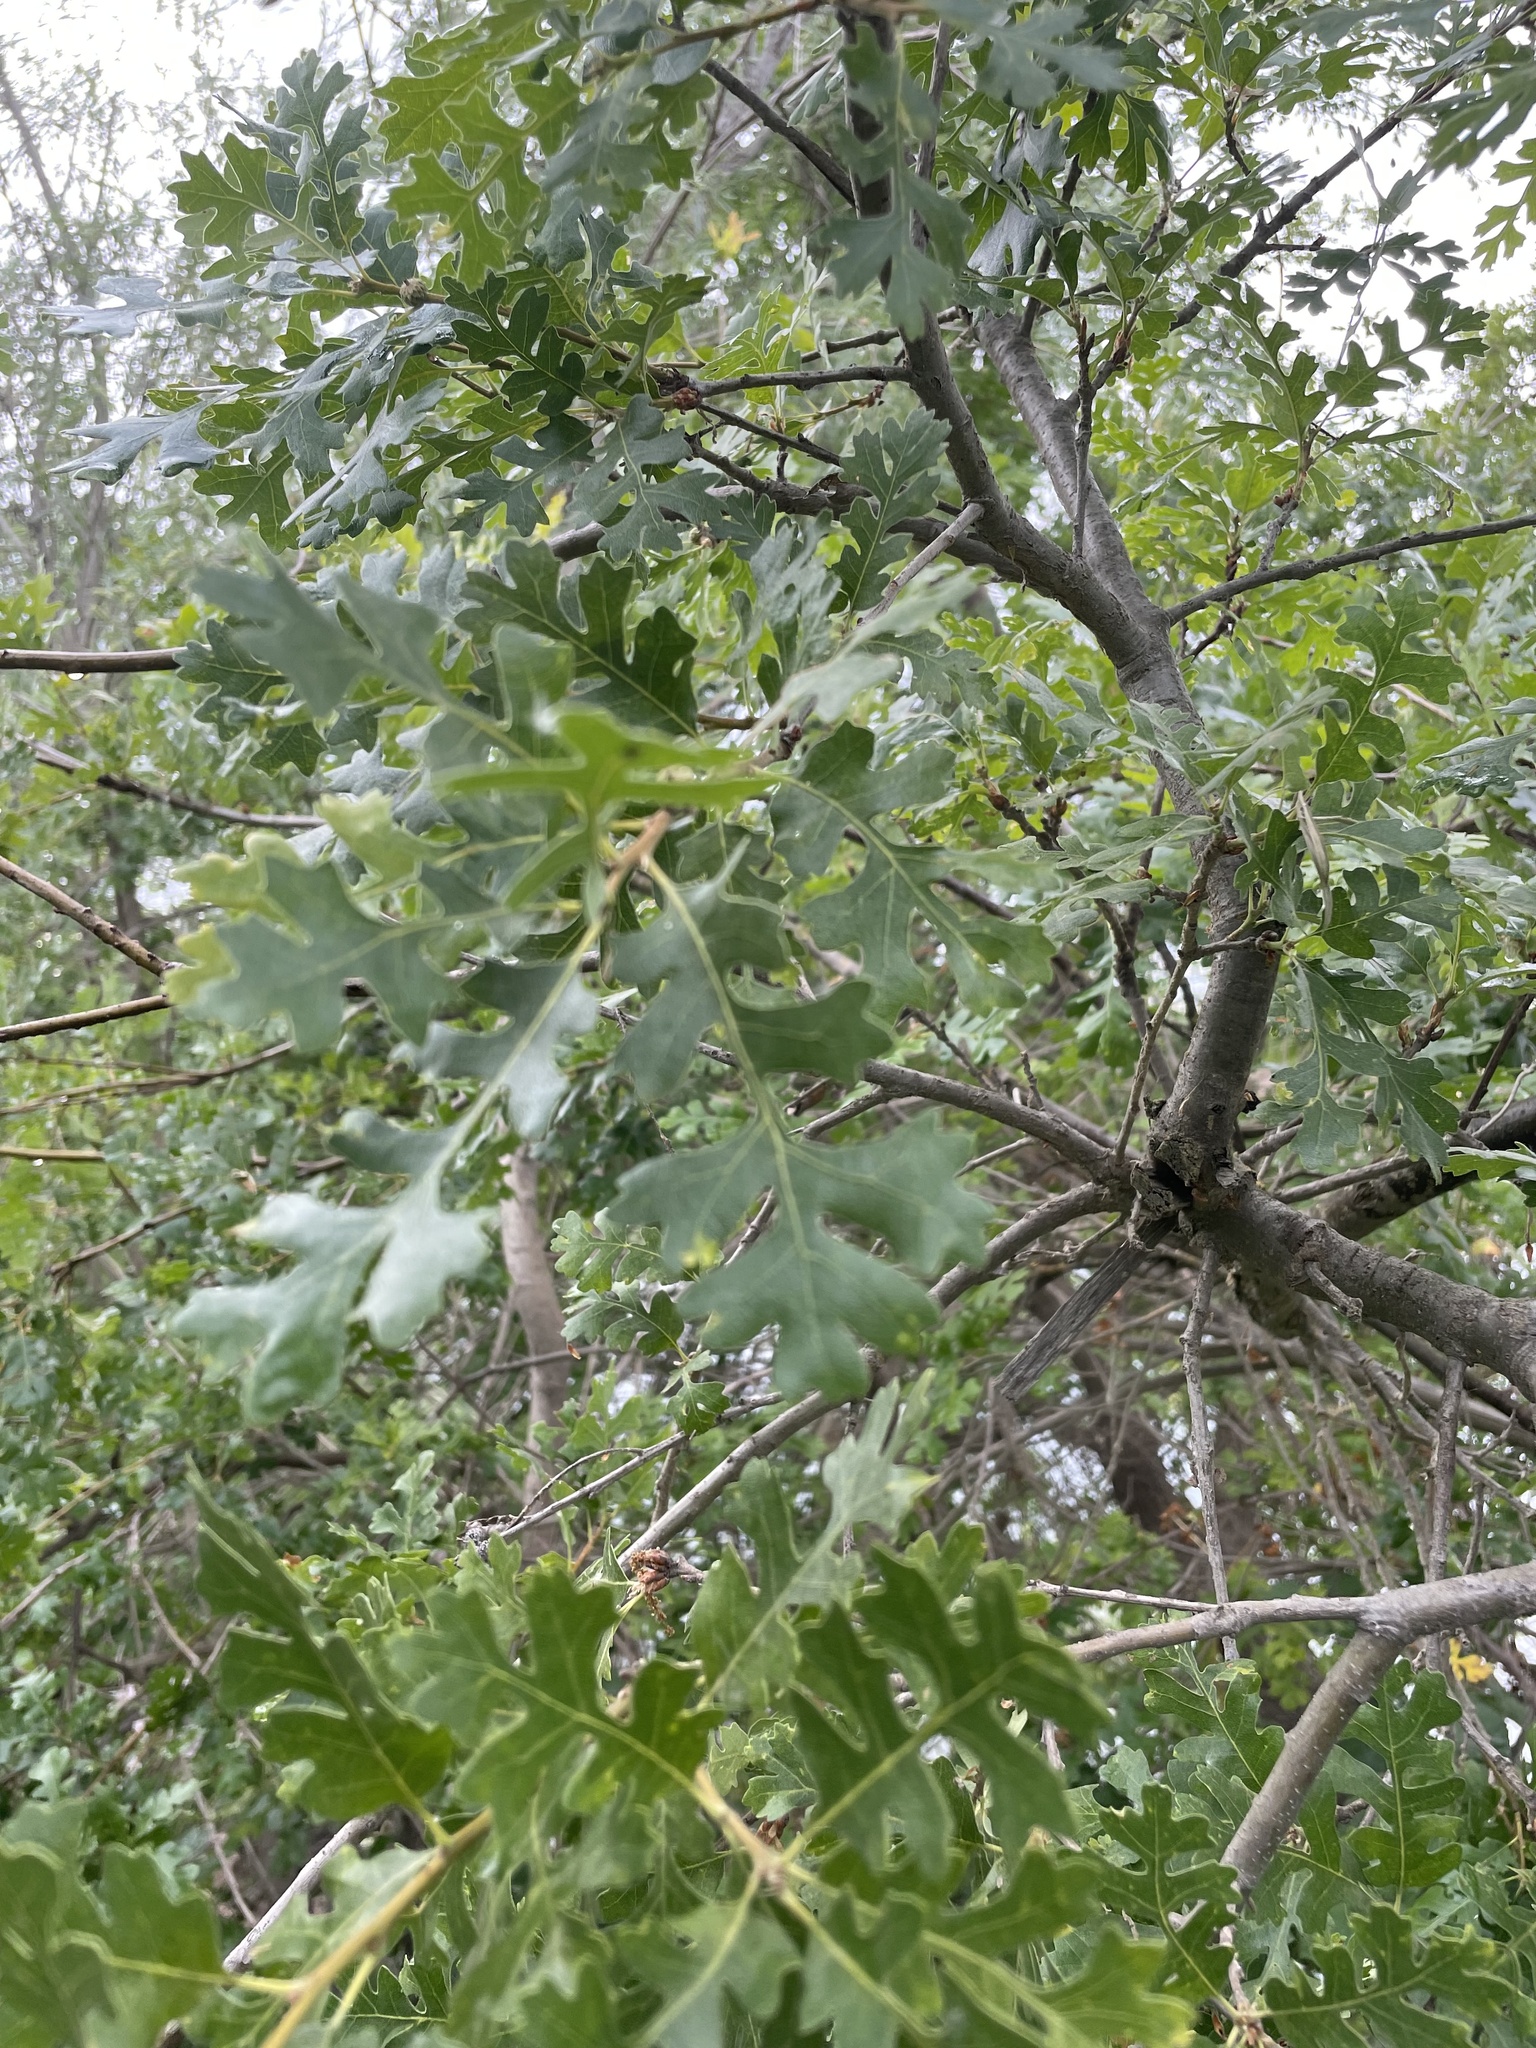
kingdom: Plantae
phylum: Tracheophyta
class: Magnoliopsida
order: Fagales
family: Fagaceae
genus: Quercus
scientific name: Quercus lobata
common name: Valley oak
